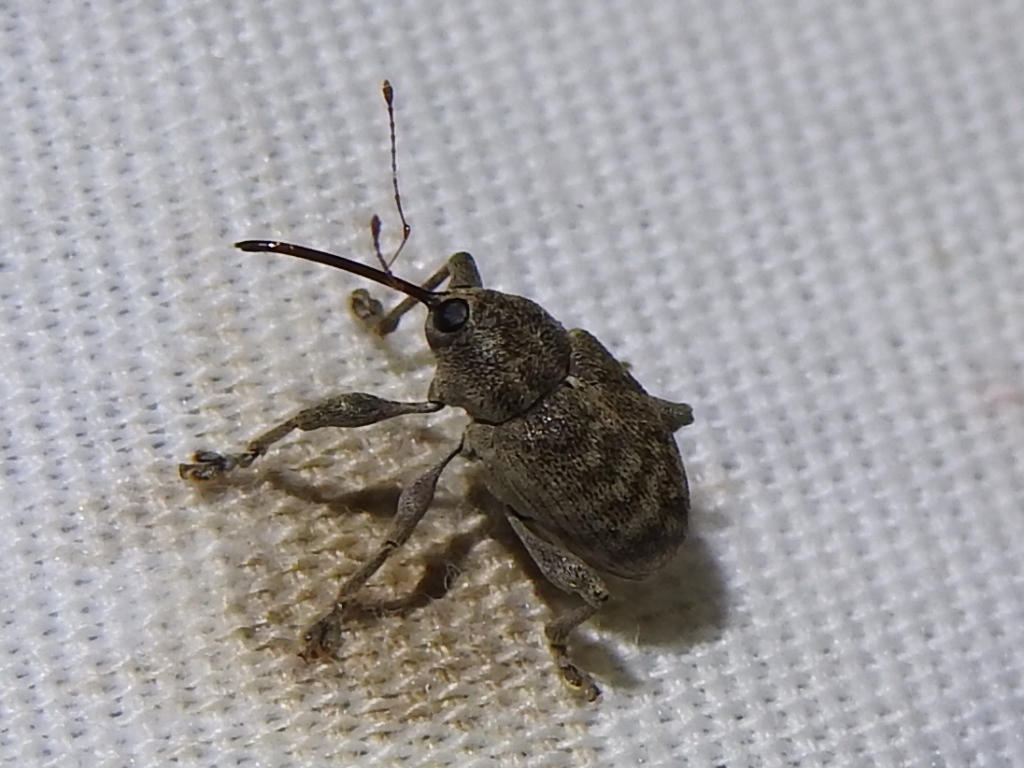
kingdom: Animalia
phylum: Arthropoda
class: Insecta
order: Coleoptera
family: Curculionidae
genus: Curculio
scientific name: Curculio
